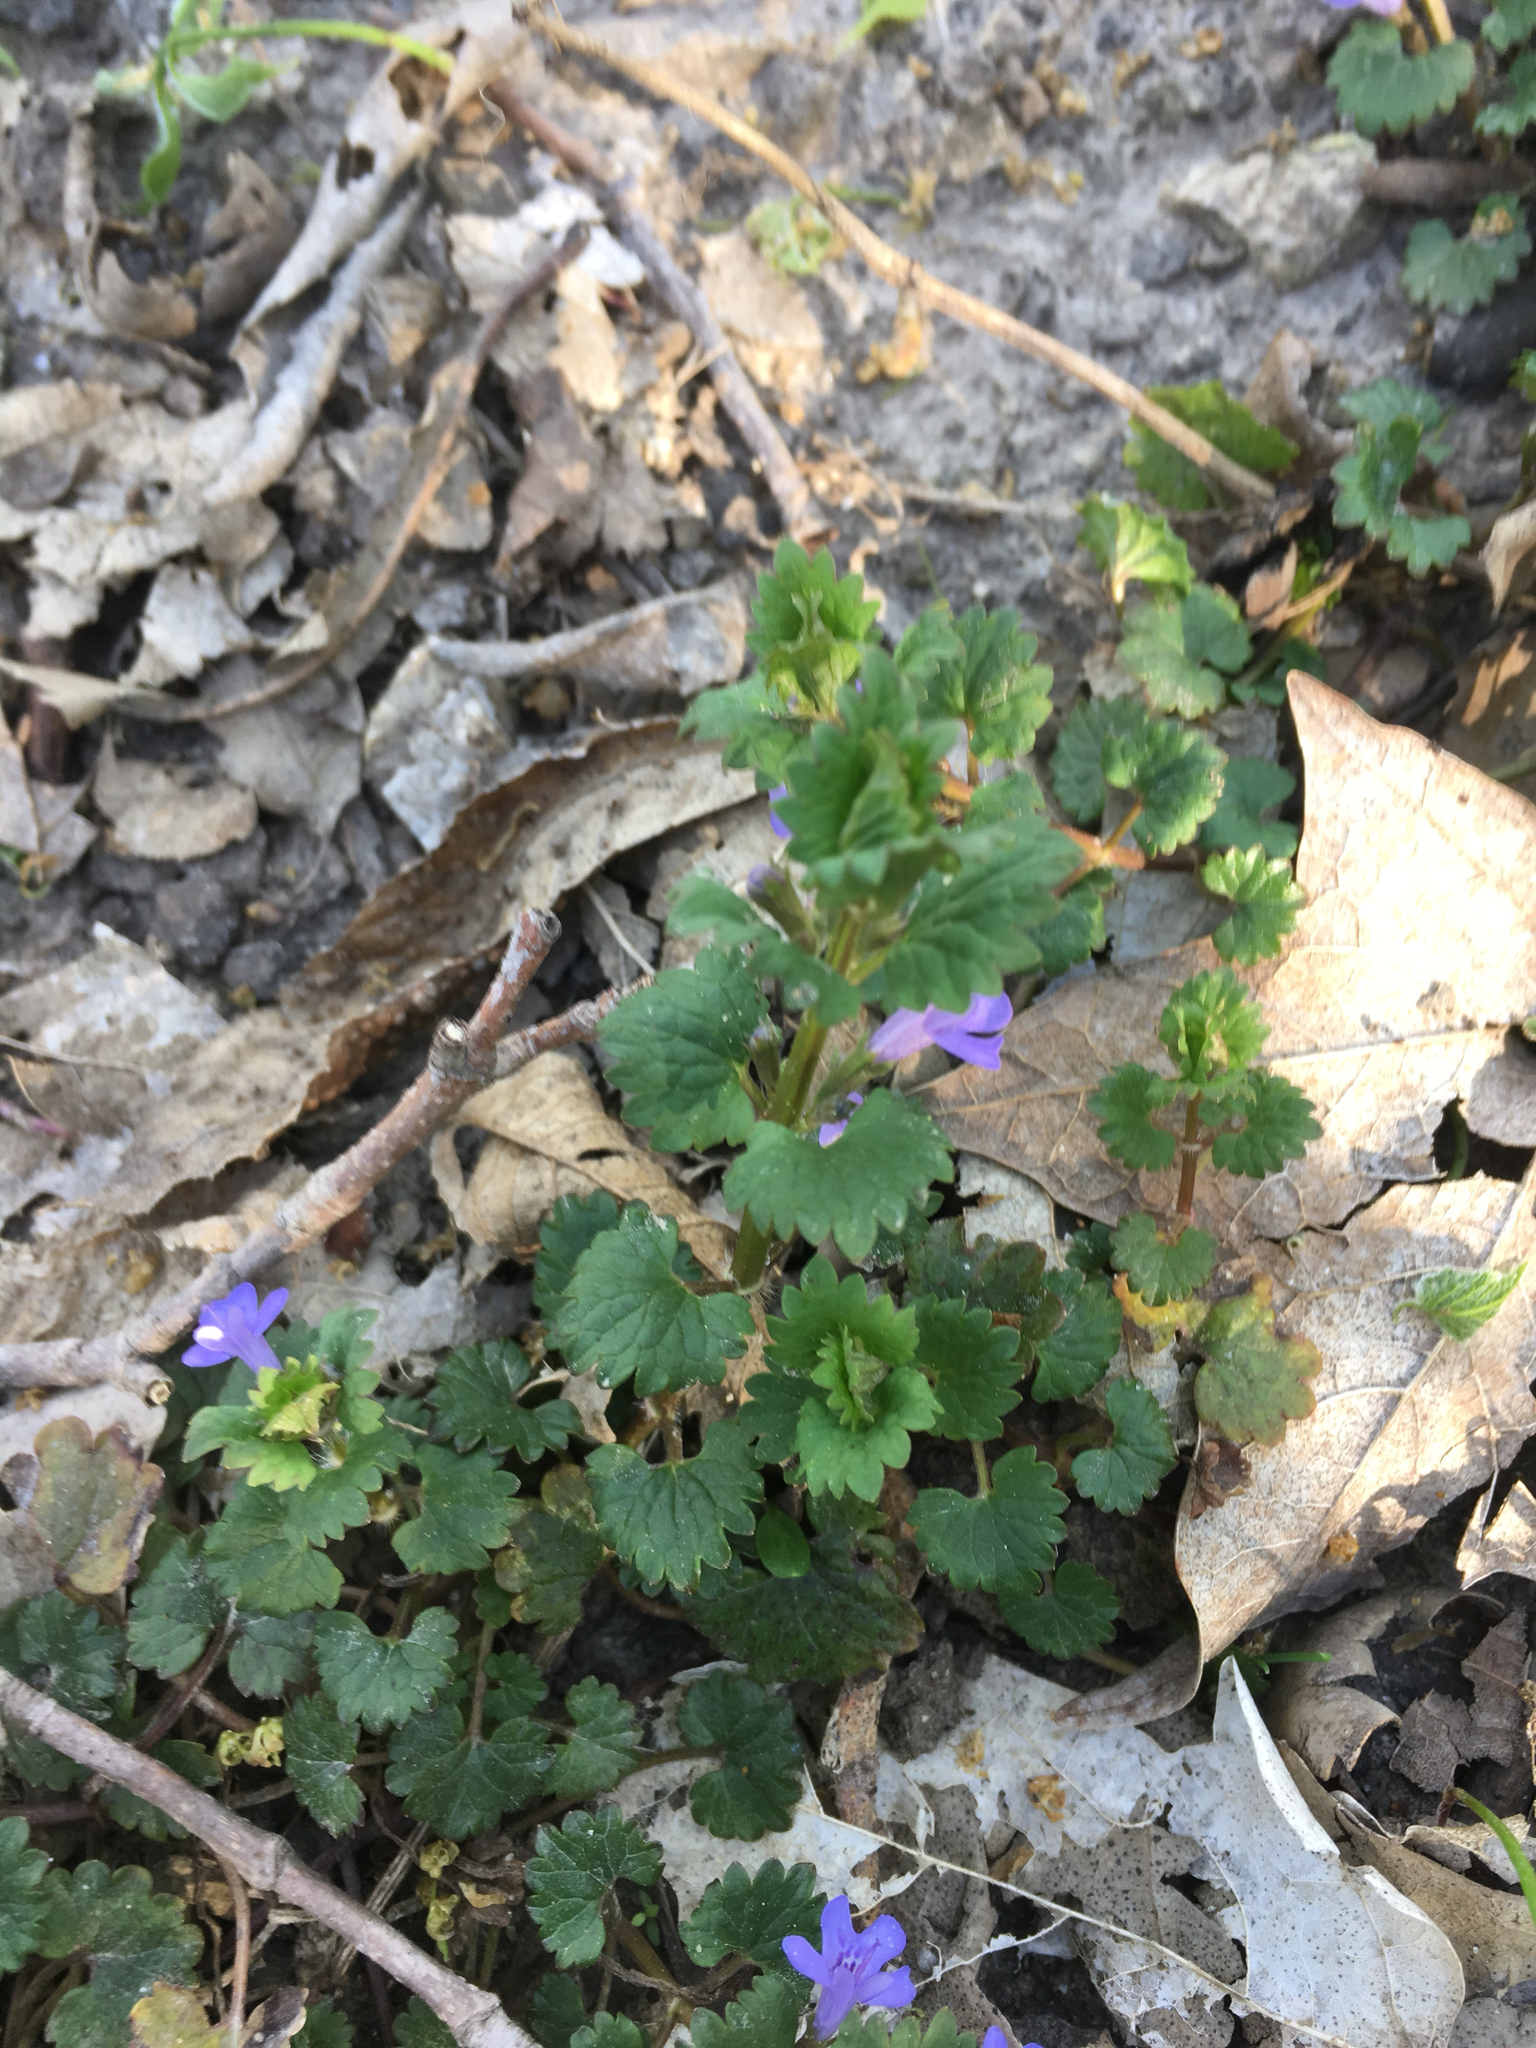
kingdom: Plantae
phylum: Tracheophyta
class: Magnoliopsida
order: Lamiales
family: Lamiaceae
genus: Glechoma
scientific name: Glechoma hederacea
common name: Ground ivy
